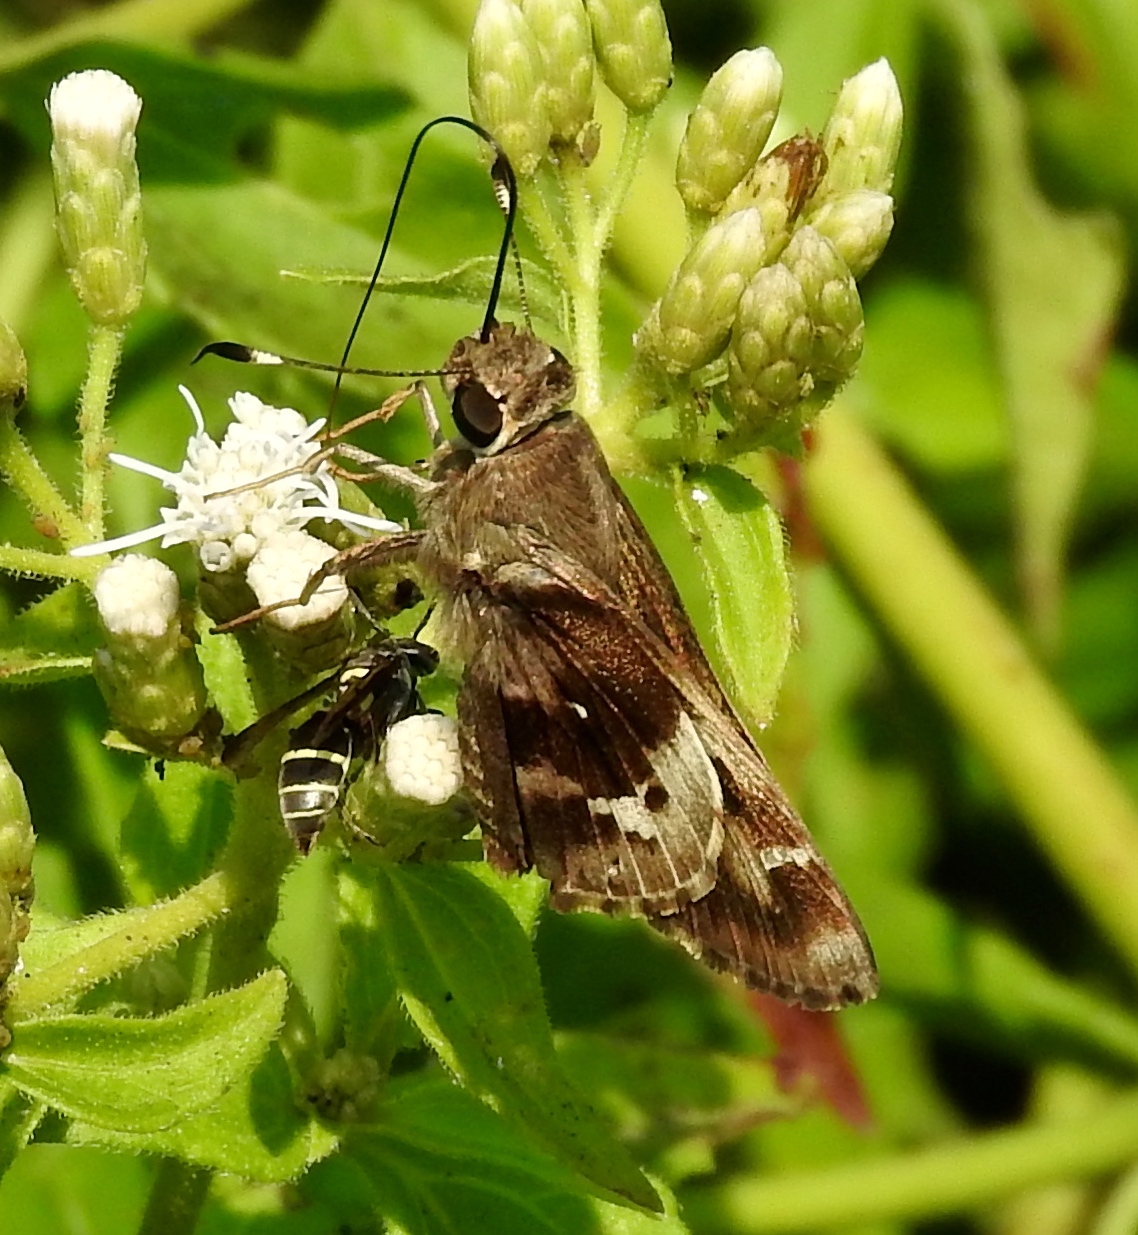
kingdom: Animalia
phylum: Arthropoda
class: Insecta
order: Lepidoptera
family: Hesperiidae
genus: Vacerra
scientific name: Vacerra
